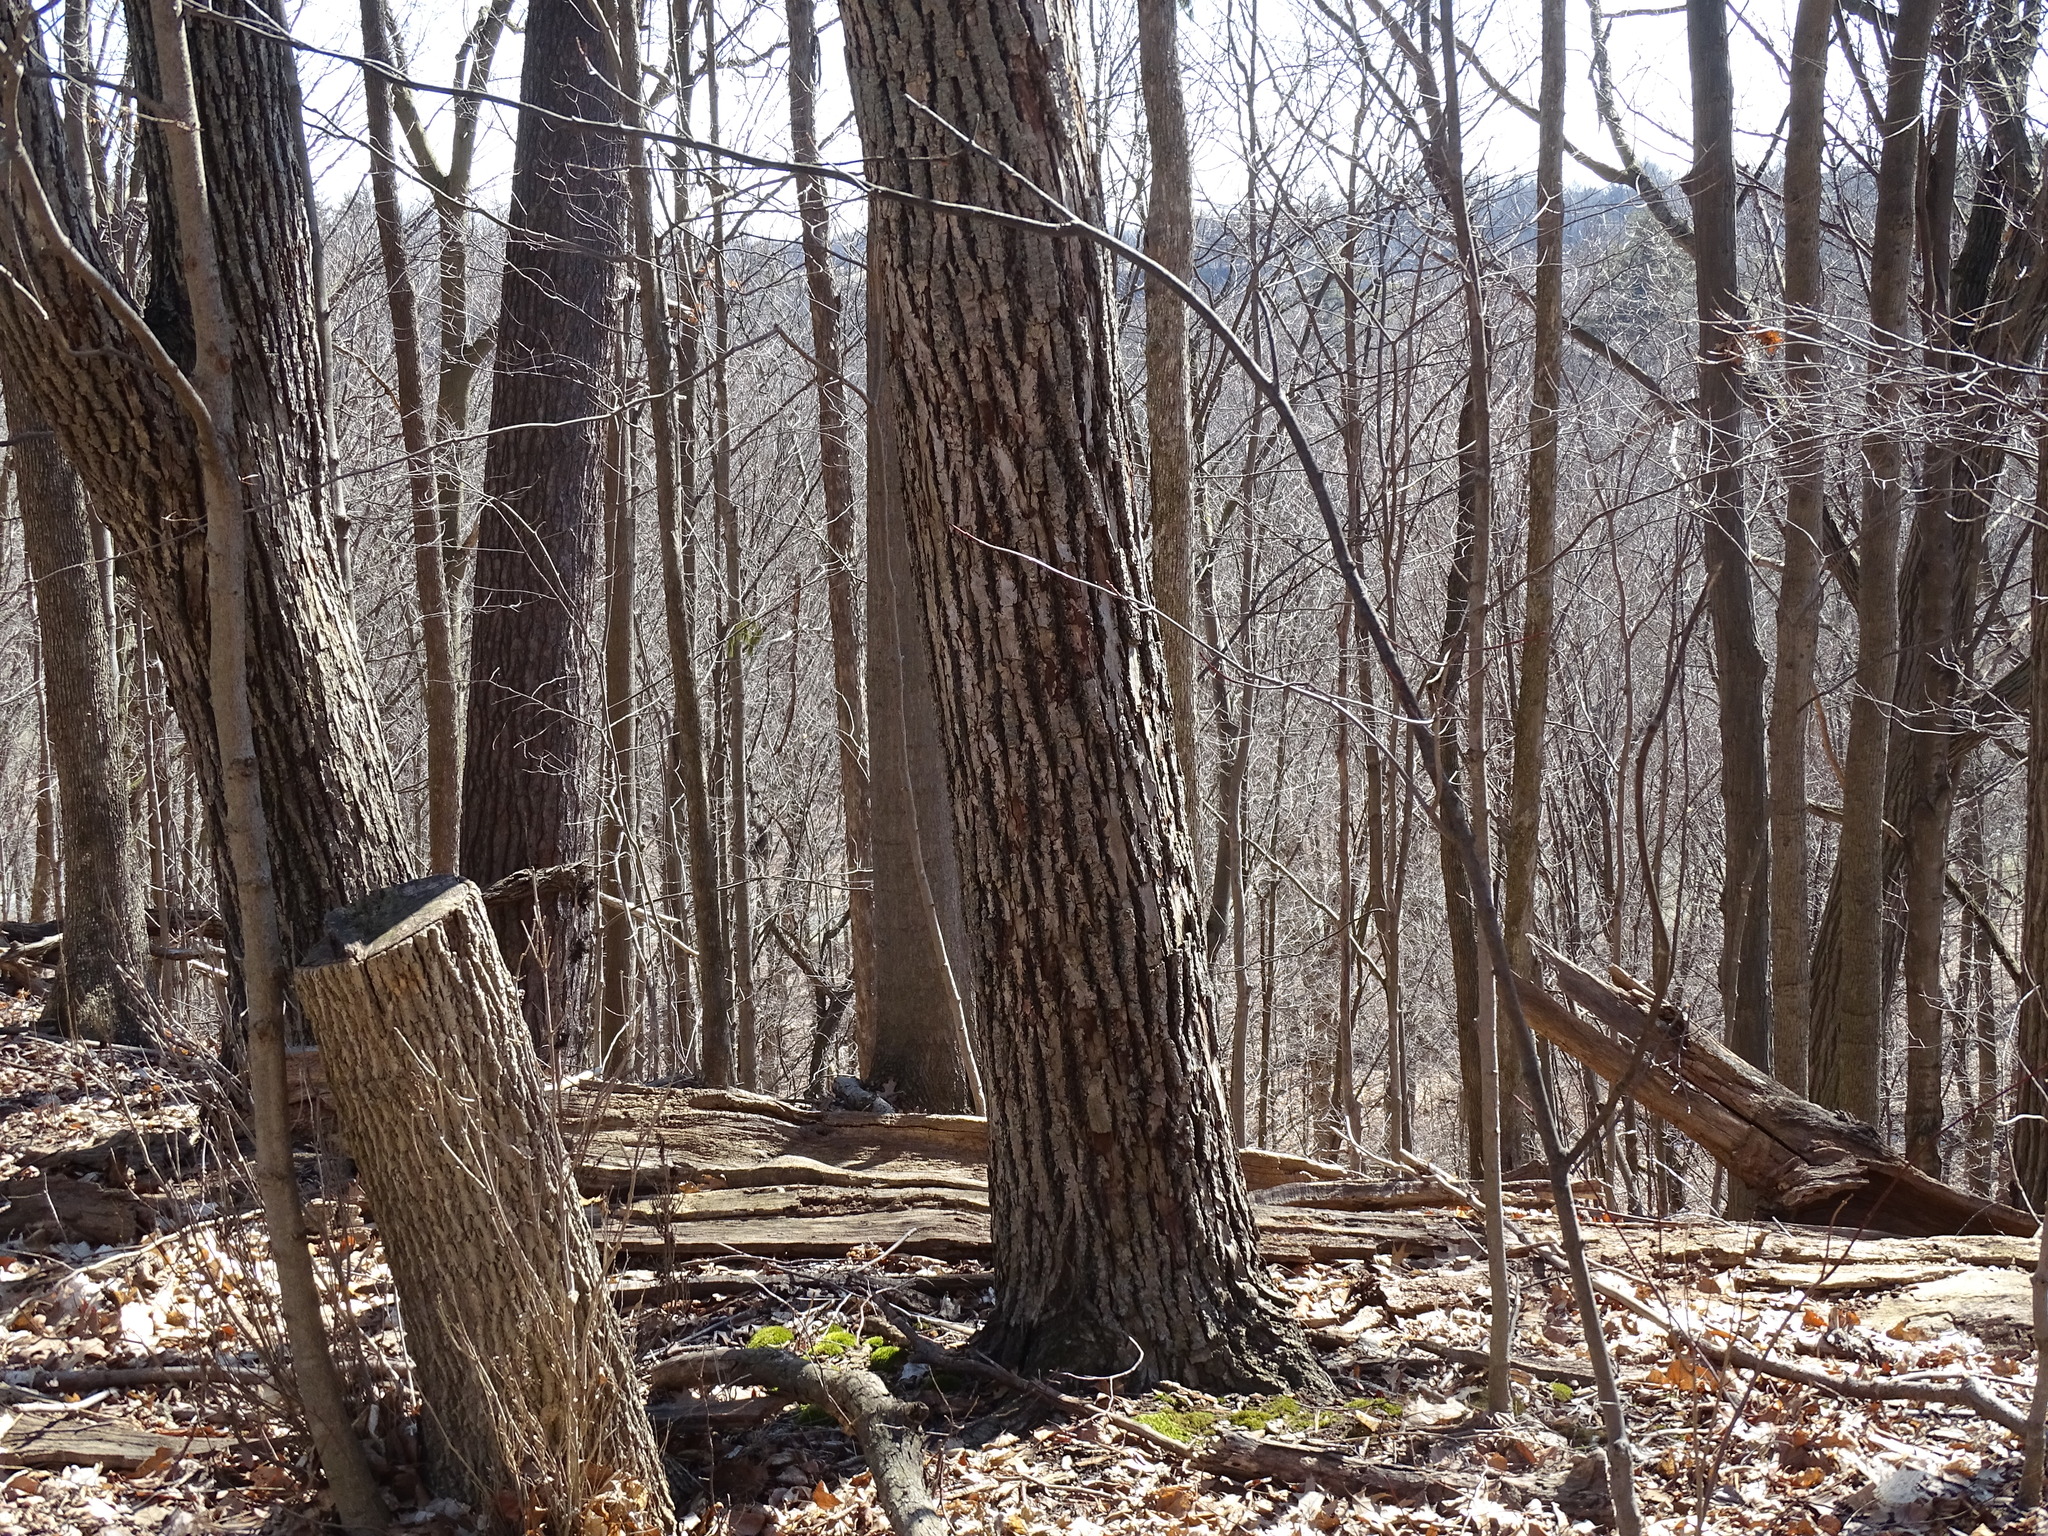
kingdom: Plantae
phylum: Tracheophyta
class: Magnoliopsida
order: Malvales
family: Malvaceae
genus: Tilia
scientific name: Tilia americana
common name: Basswood
